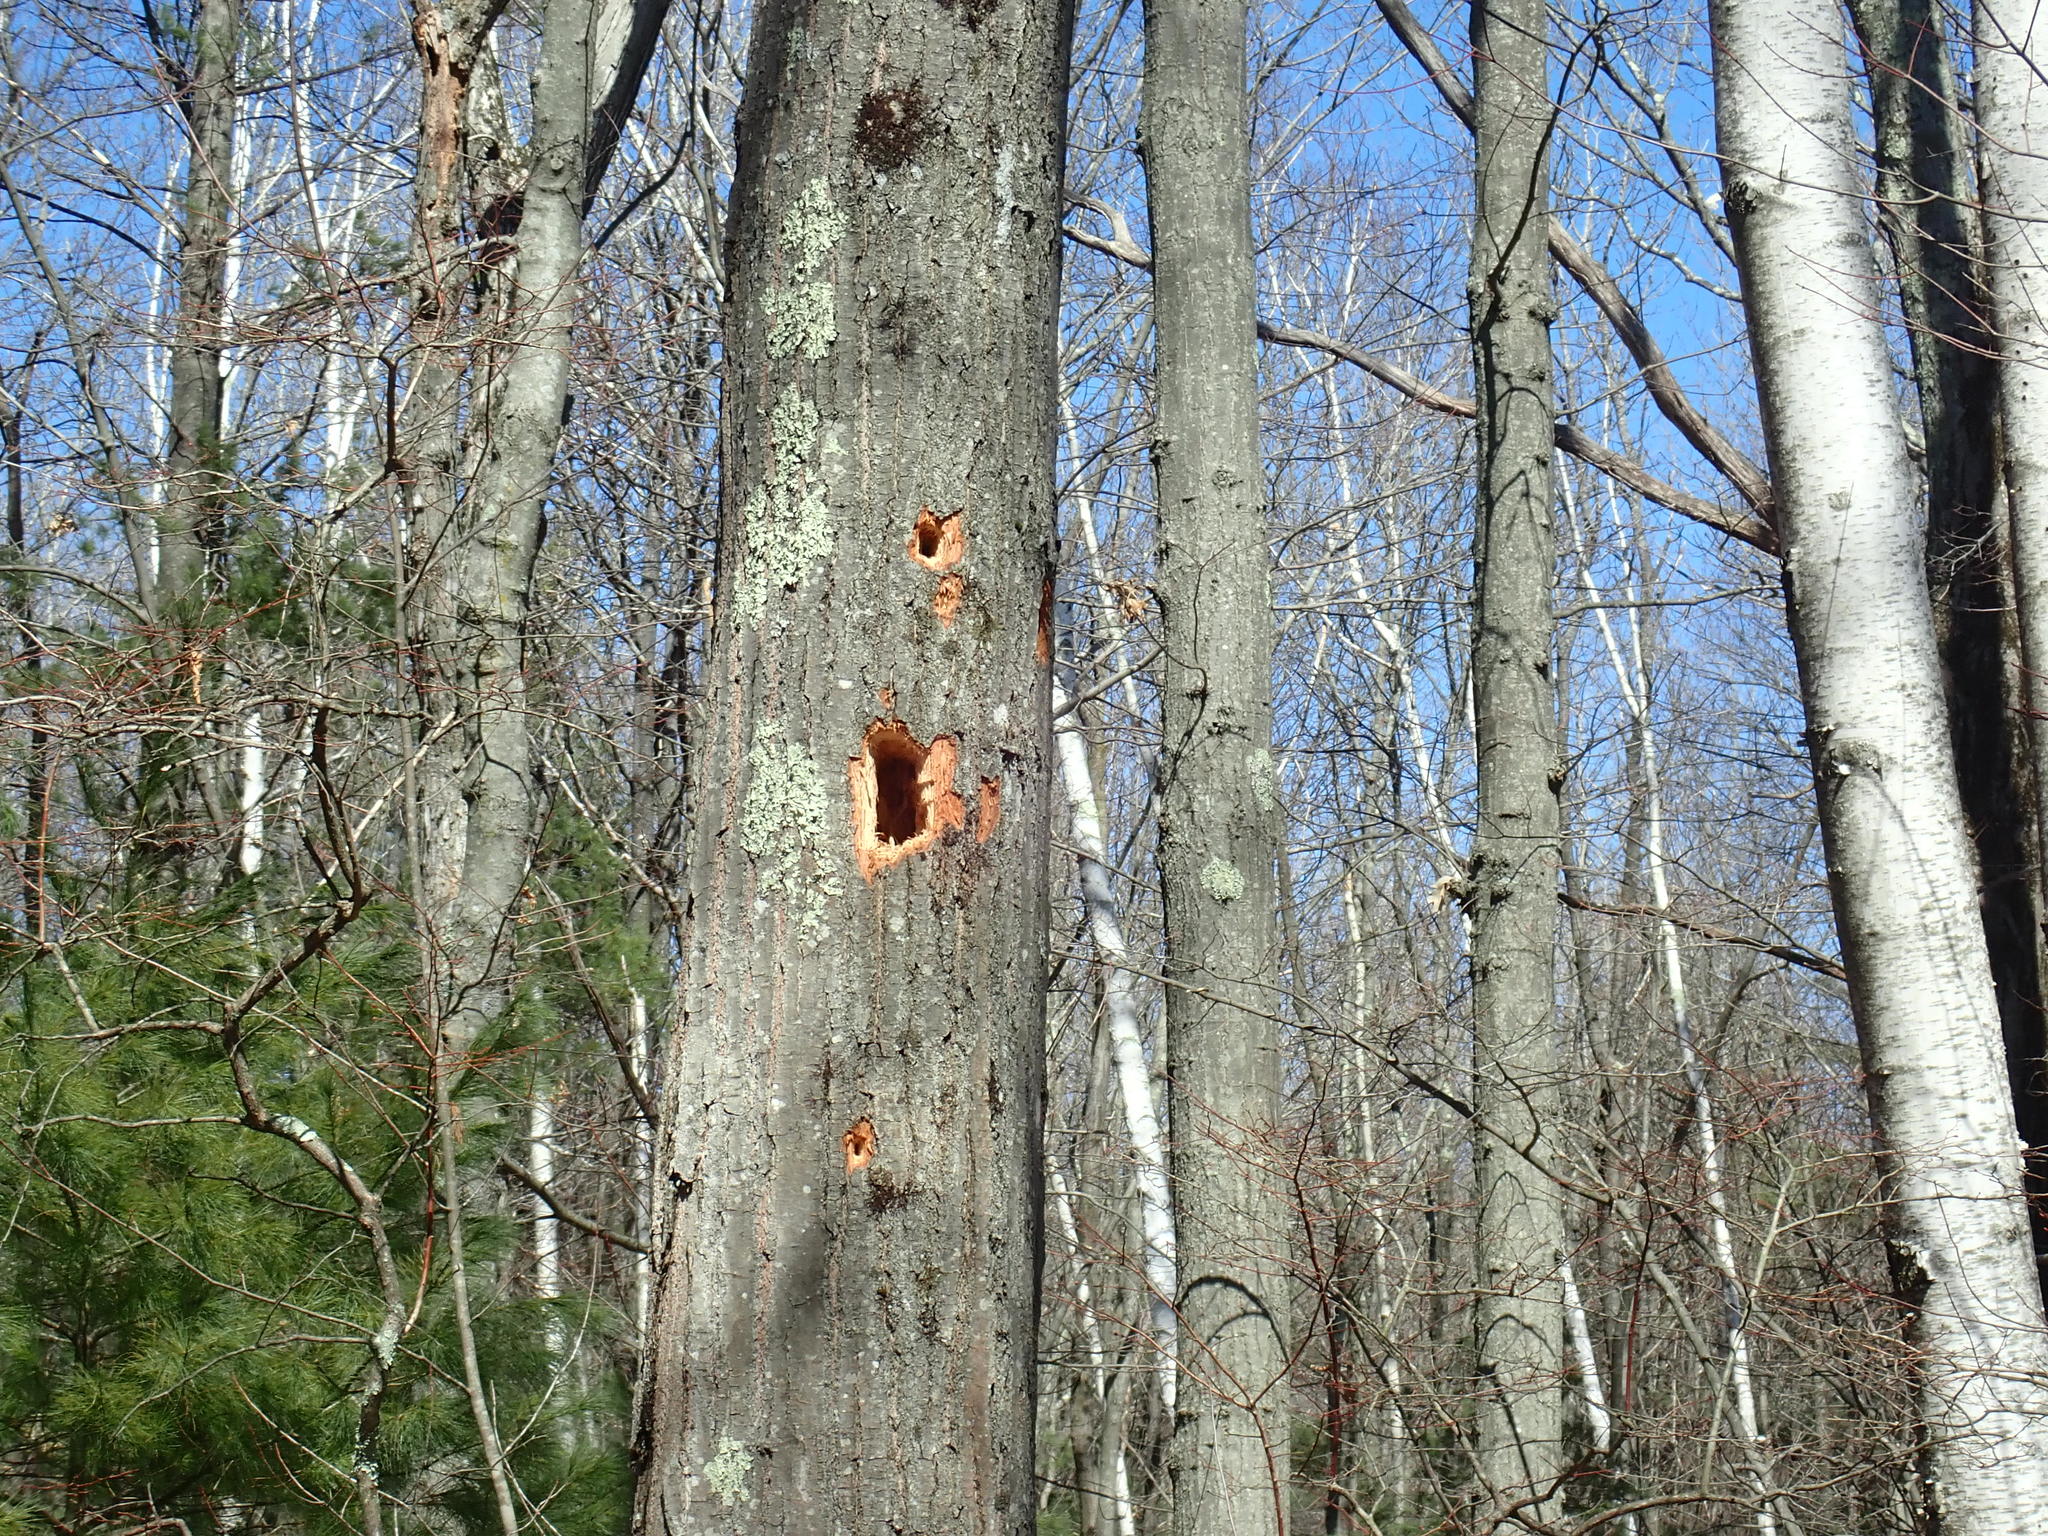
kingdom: Animalia
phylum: Chordata
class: Aves
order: Piciformes
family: Picidae
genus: Dryocopus
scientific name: Dryocopus pileatus
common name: Pileated woodpecker
